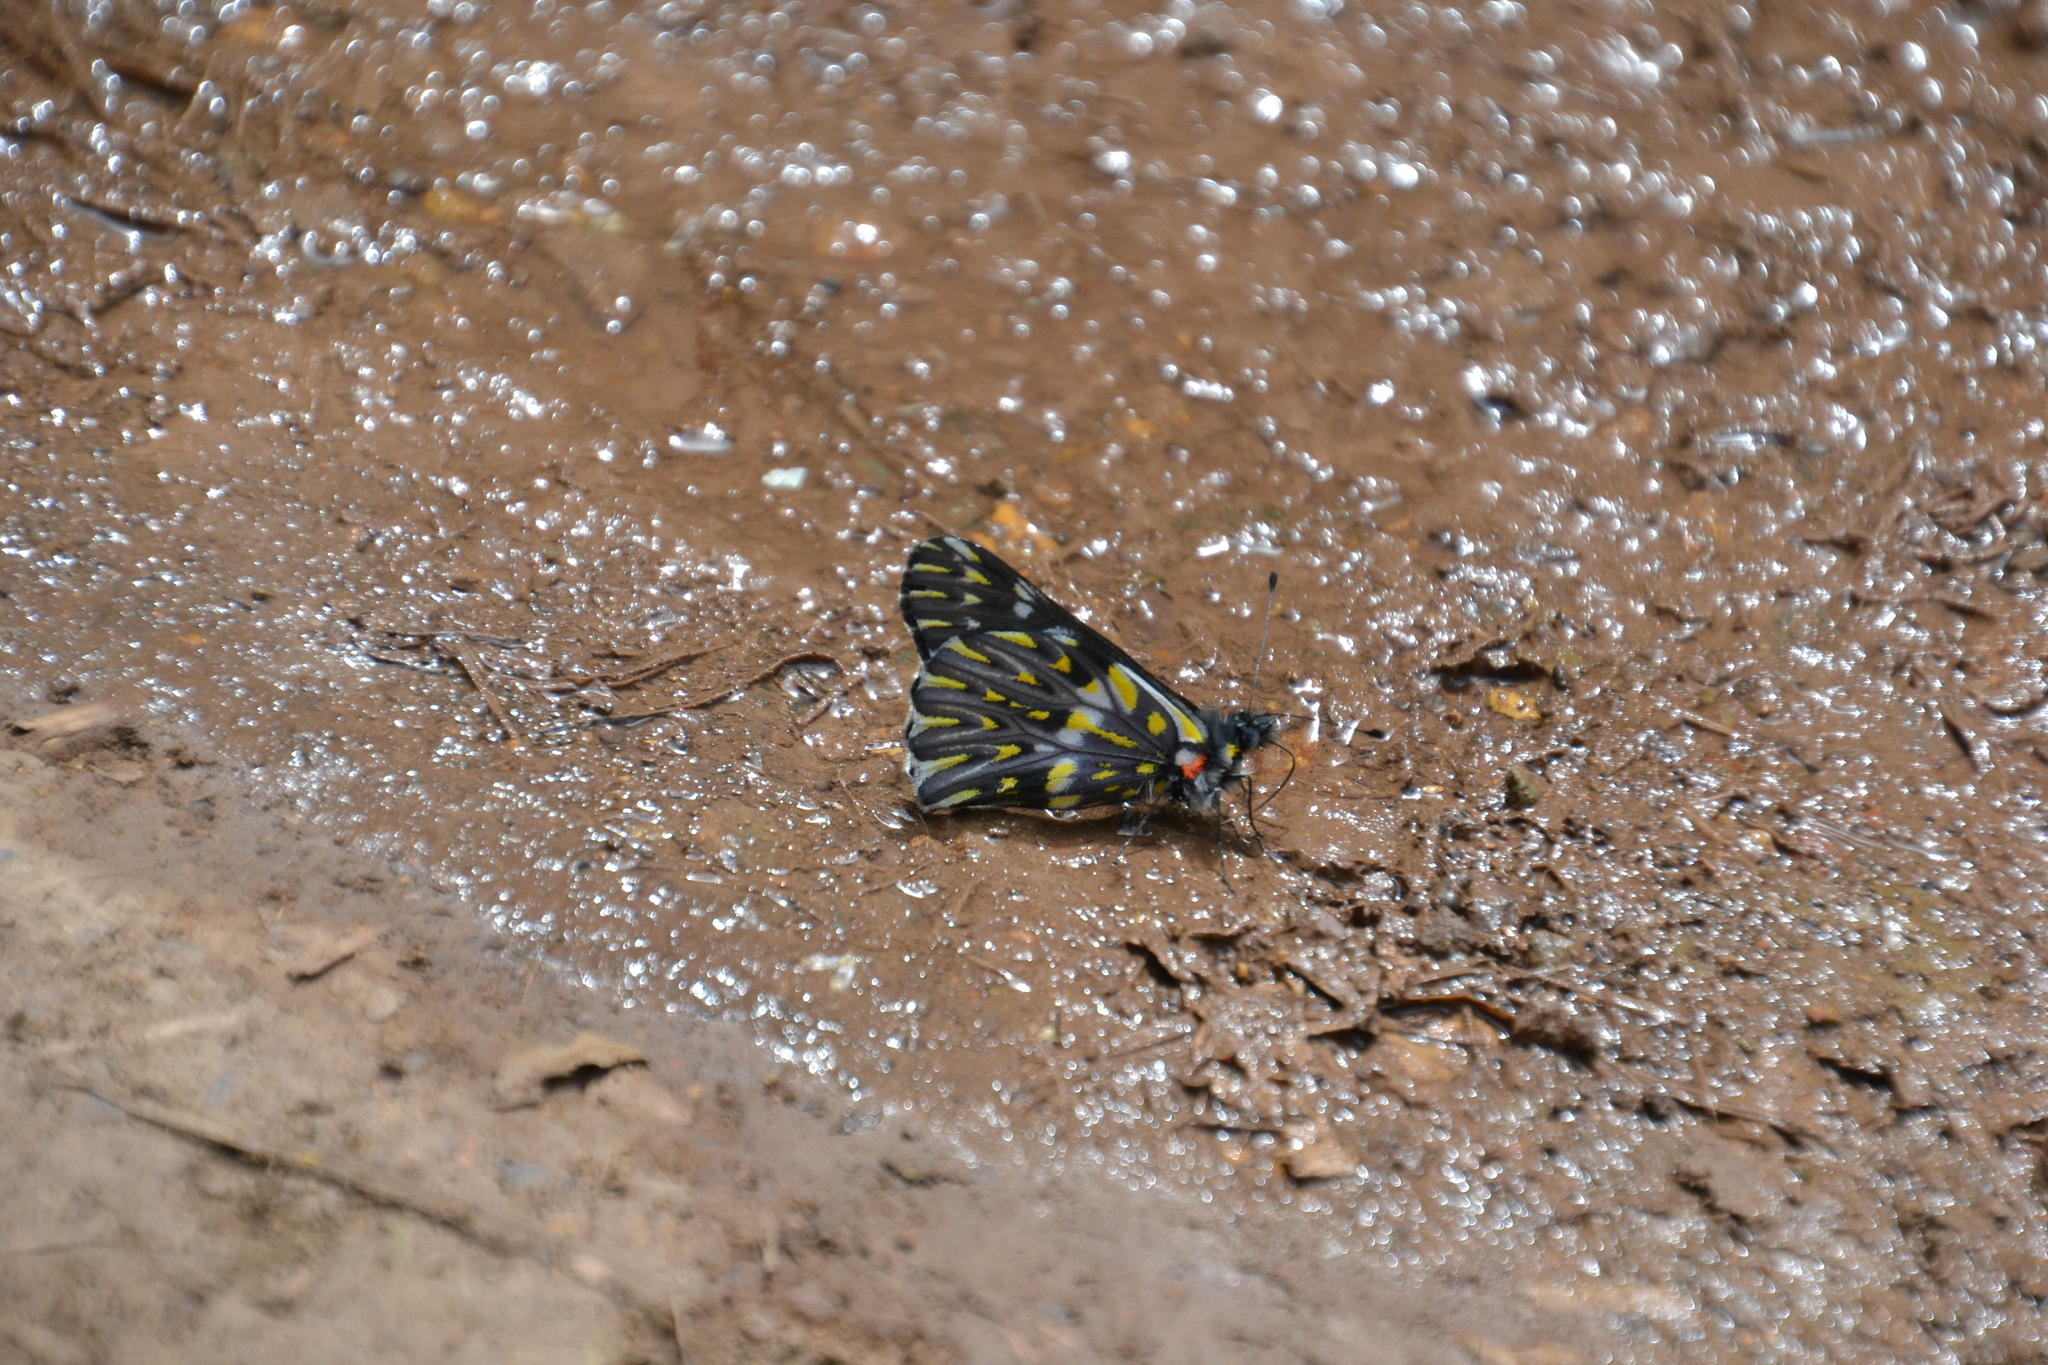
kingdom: Animalia
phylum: Arthropoda
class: Insecta
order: Lepidoptera
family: Pieridae
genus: Archonias
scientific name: Archonias teutila
